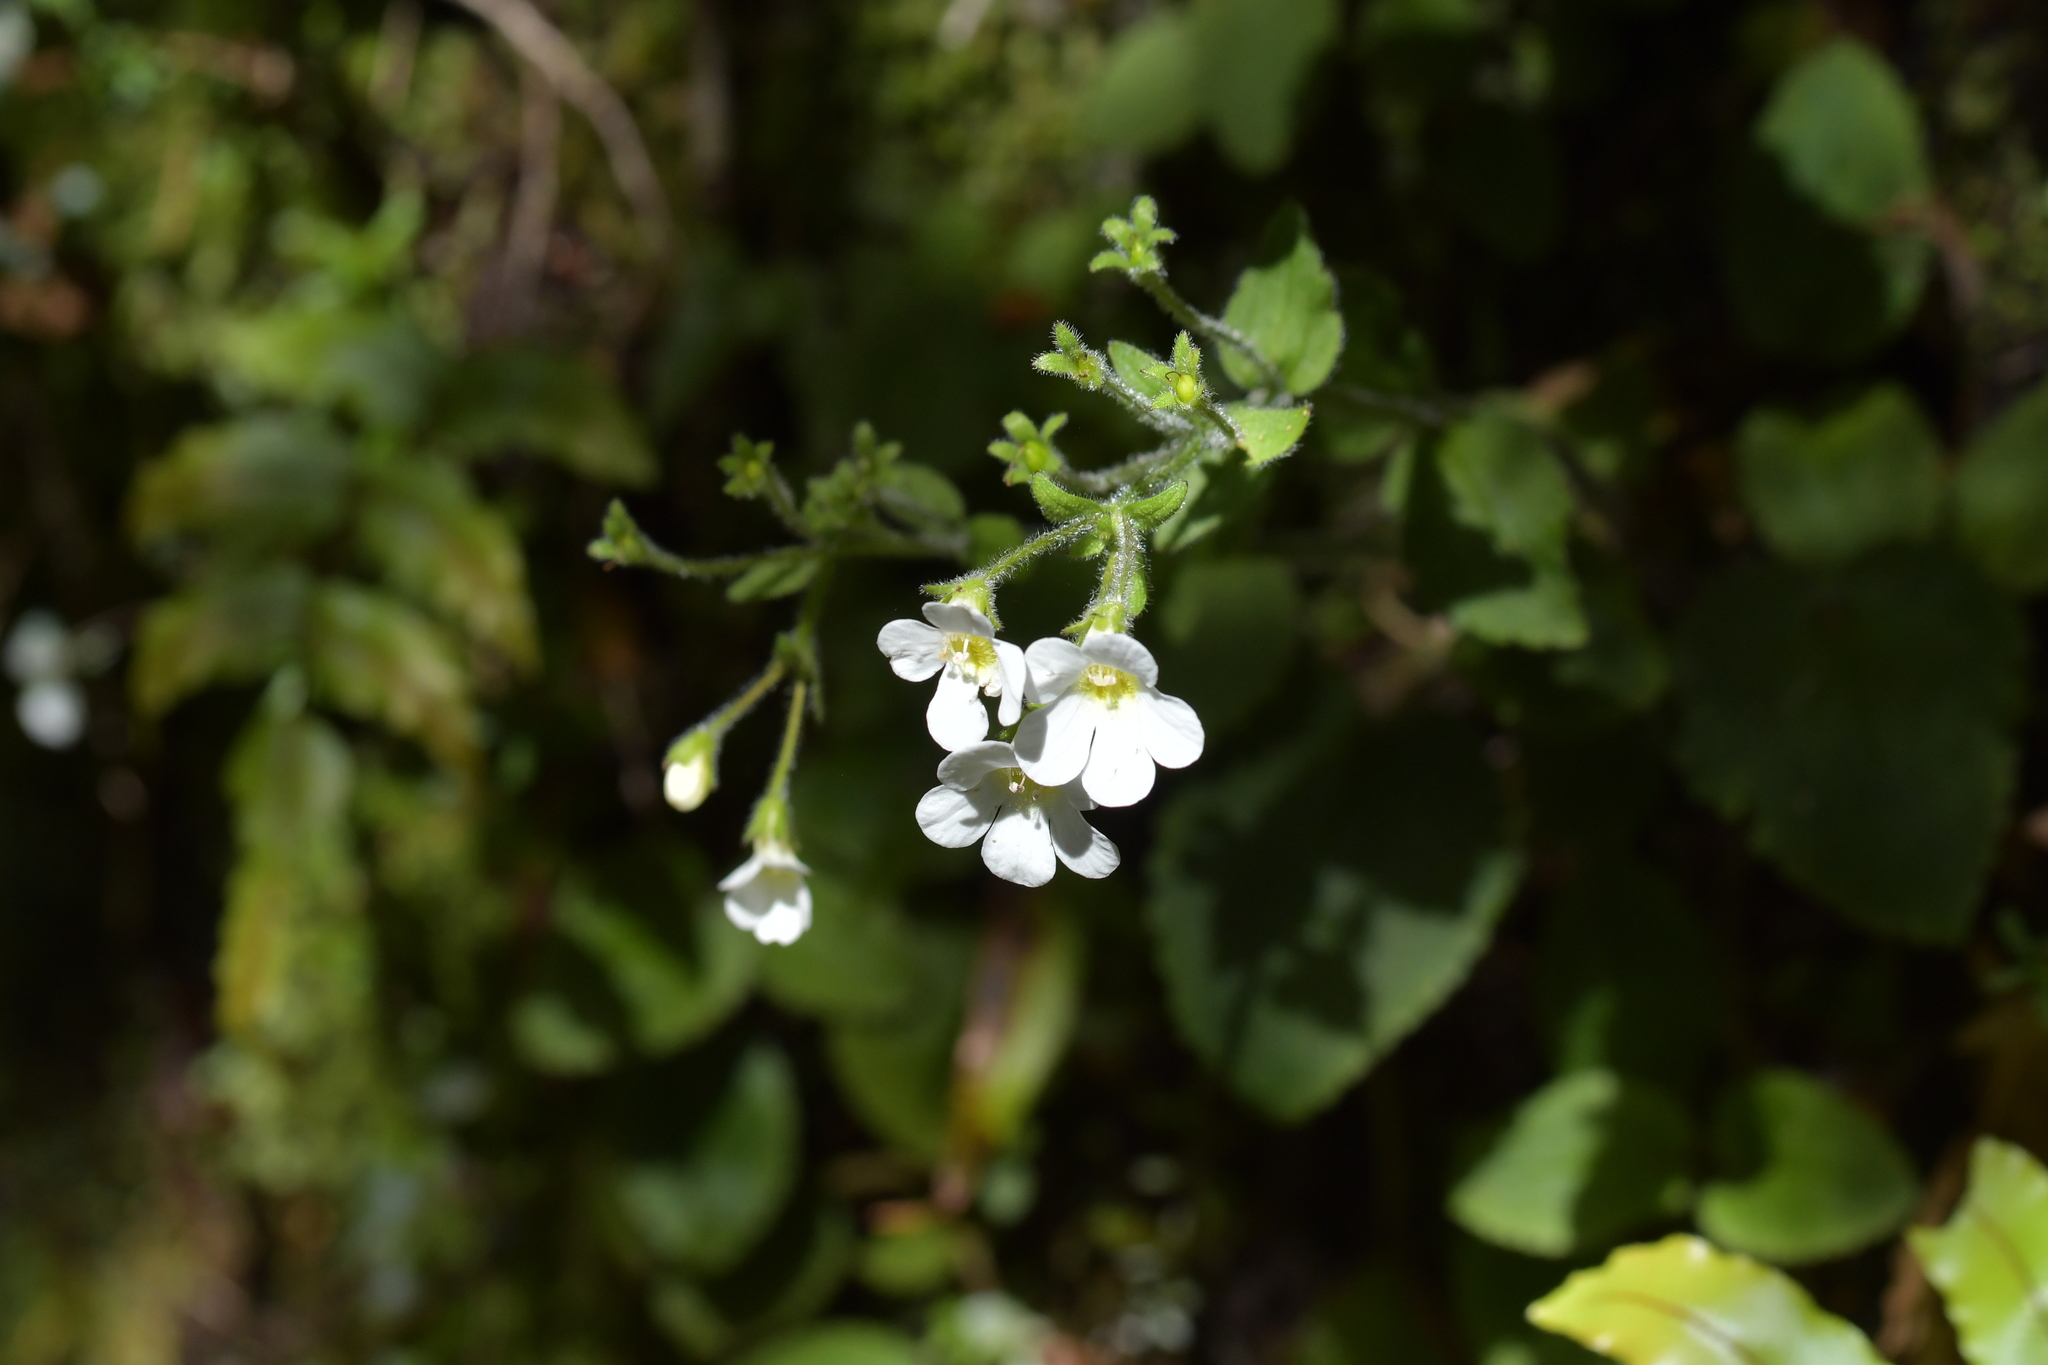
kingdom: Plantae
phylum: Tracheophyta
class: Magnoliopsida
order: Lamiales
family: Plantaginaceae
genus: Ourisia
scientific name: Ourisia crosbyi
